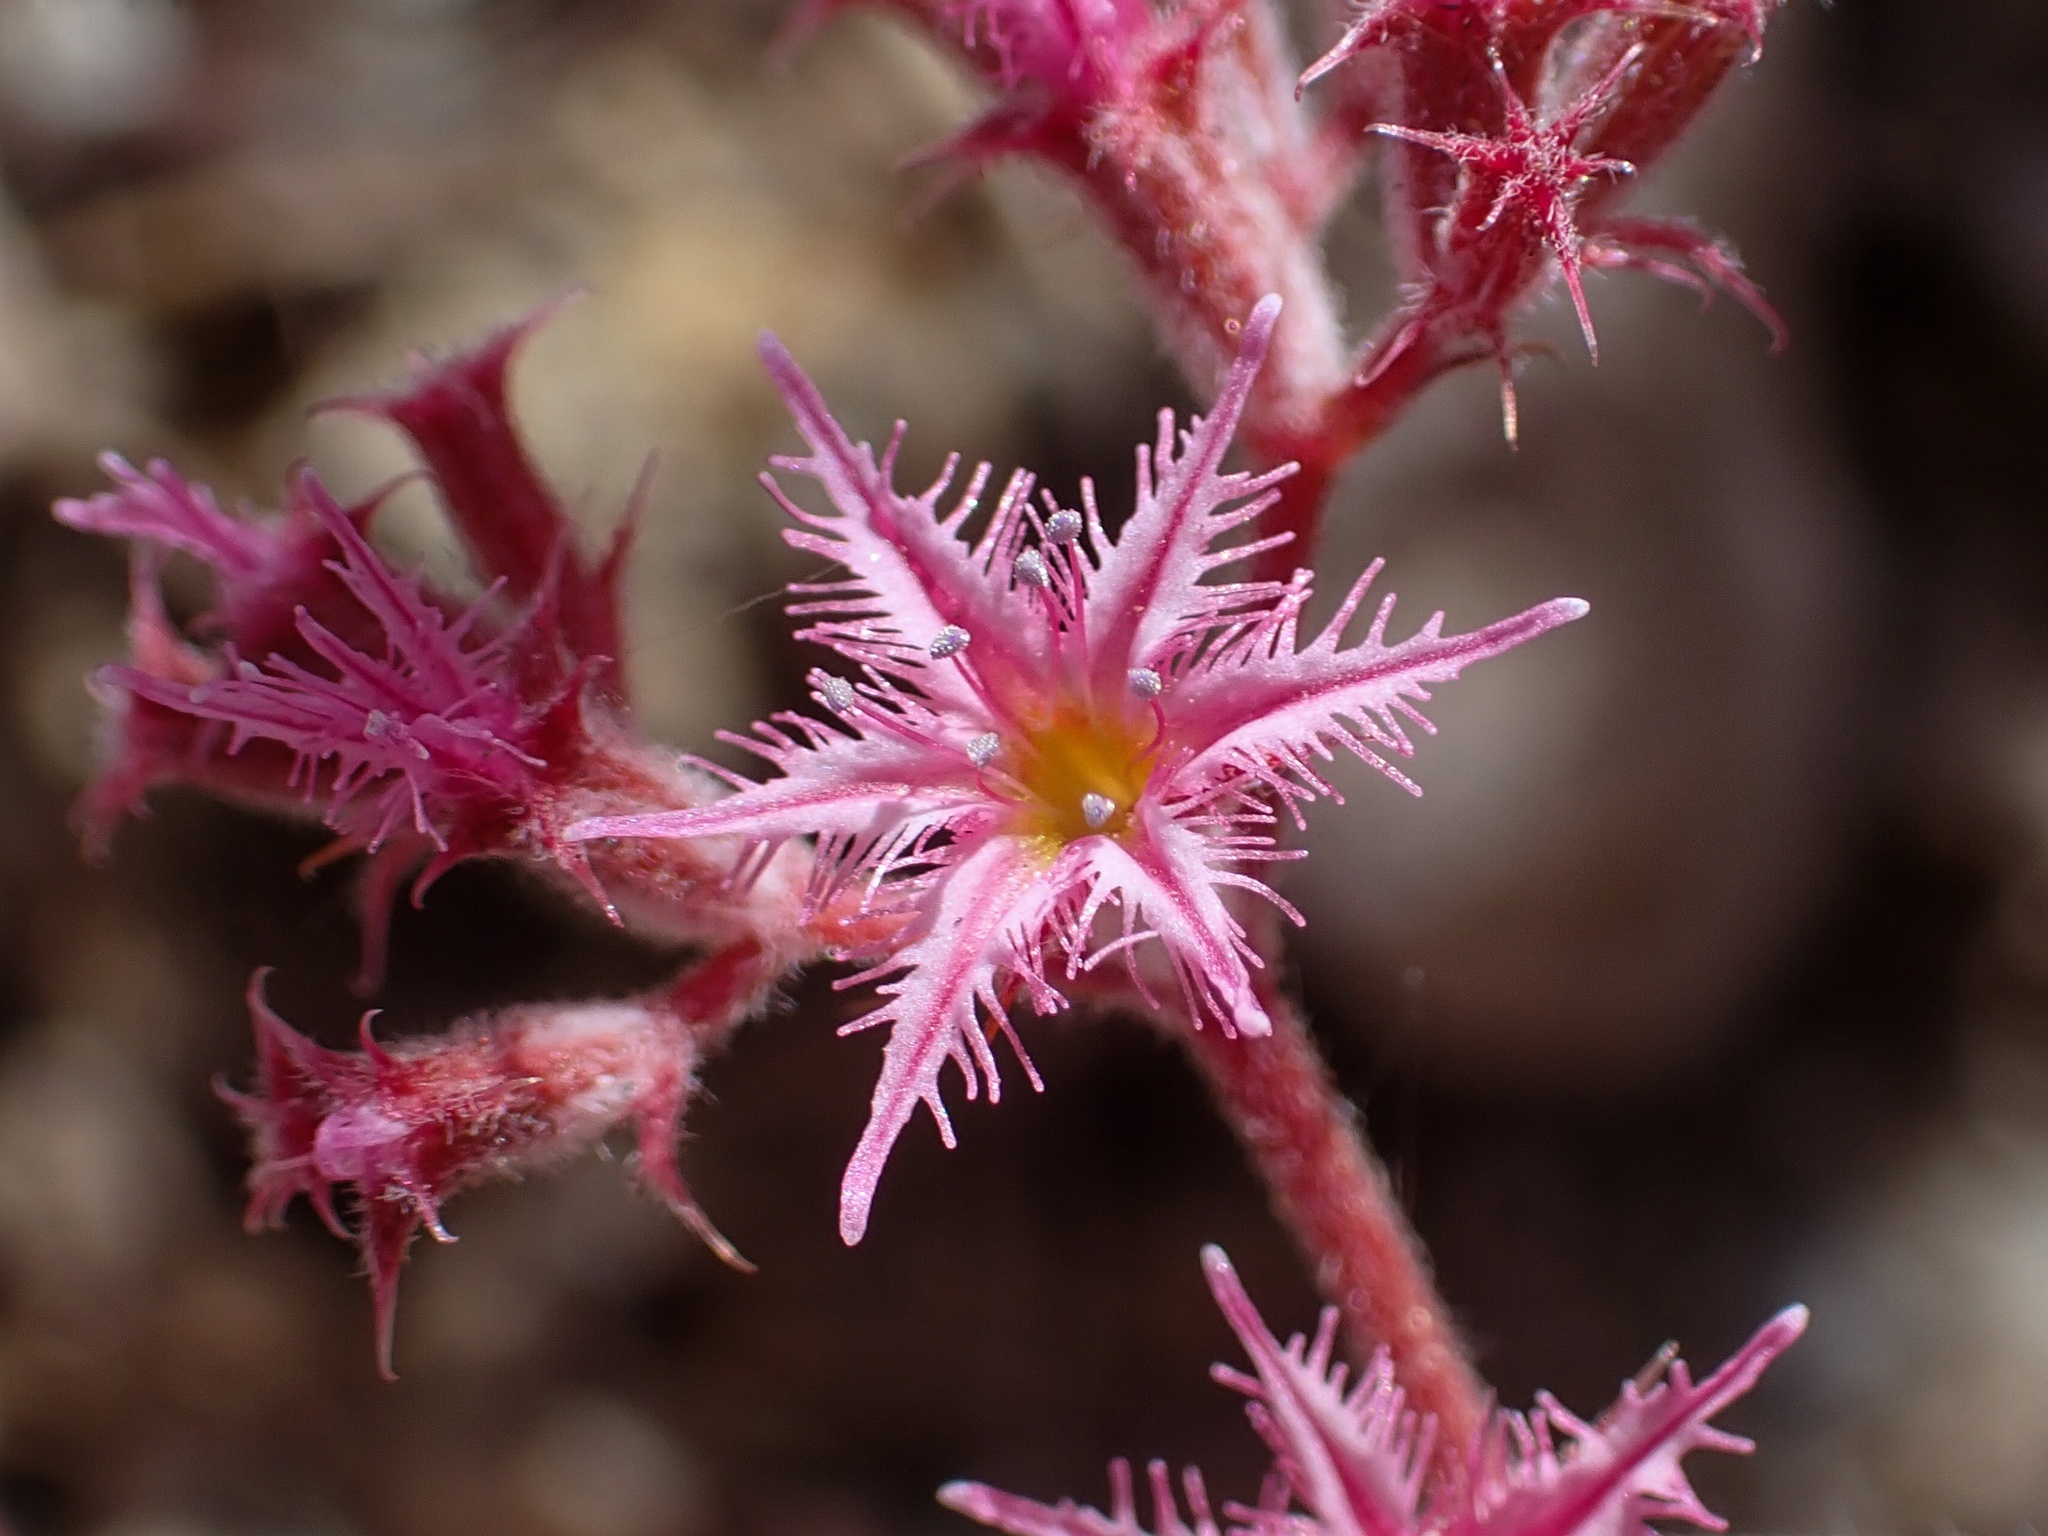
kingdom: Plantae
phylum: Tracheophyta
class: Magnoliopsida
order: Caryophyllales
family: Polygonaceae
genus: Chorizanthe
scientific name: Chorizanthe fimbriata
